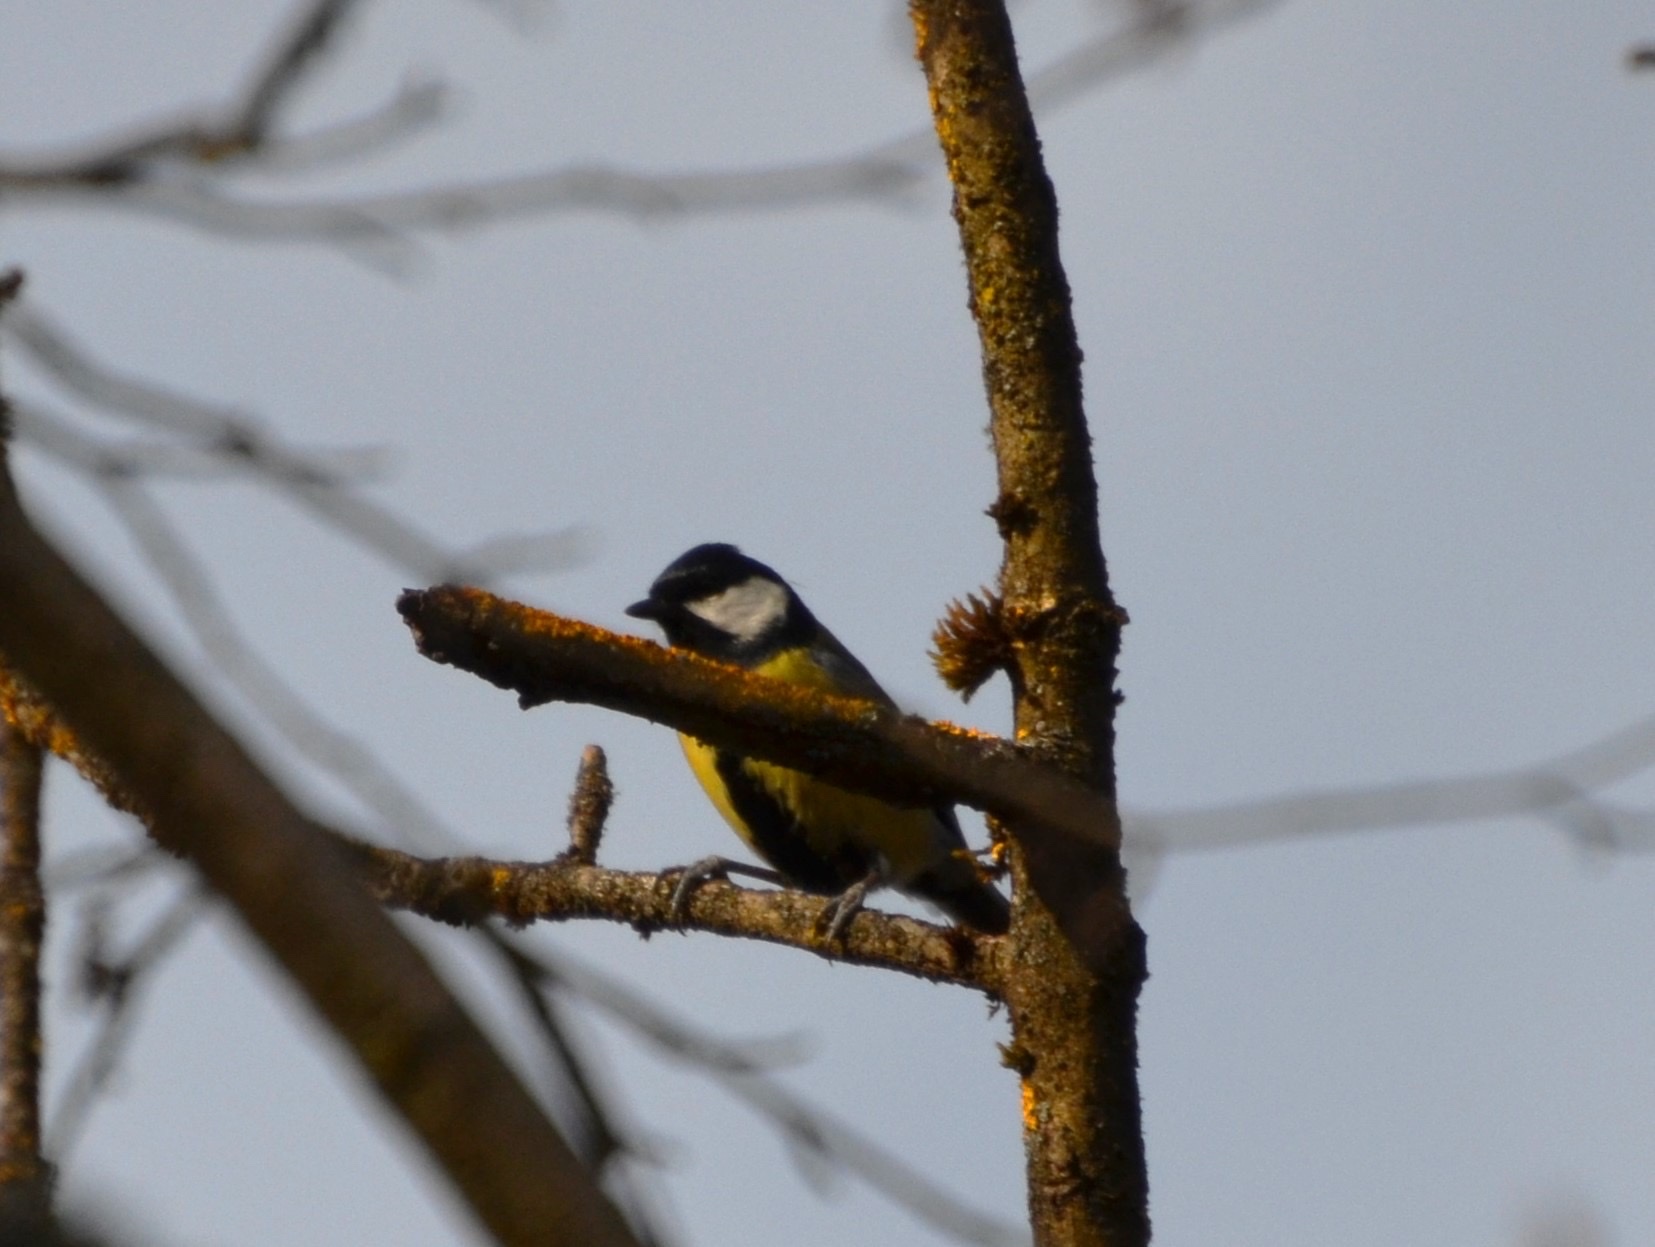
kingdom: Animalia
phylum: Chordata
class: Aves
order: Passeriformes
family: Paridae
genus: Parus
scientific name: Parus major
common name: Great tit
